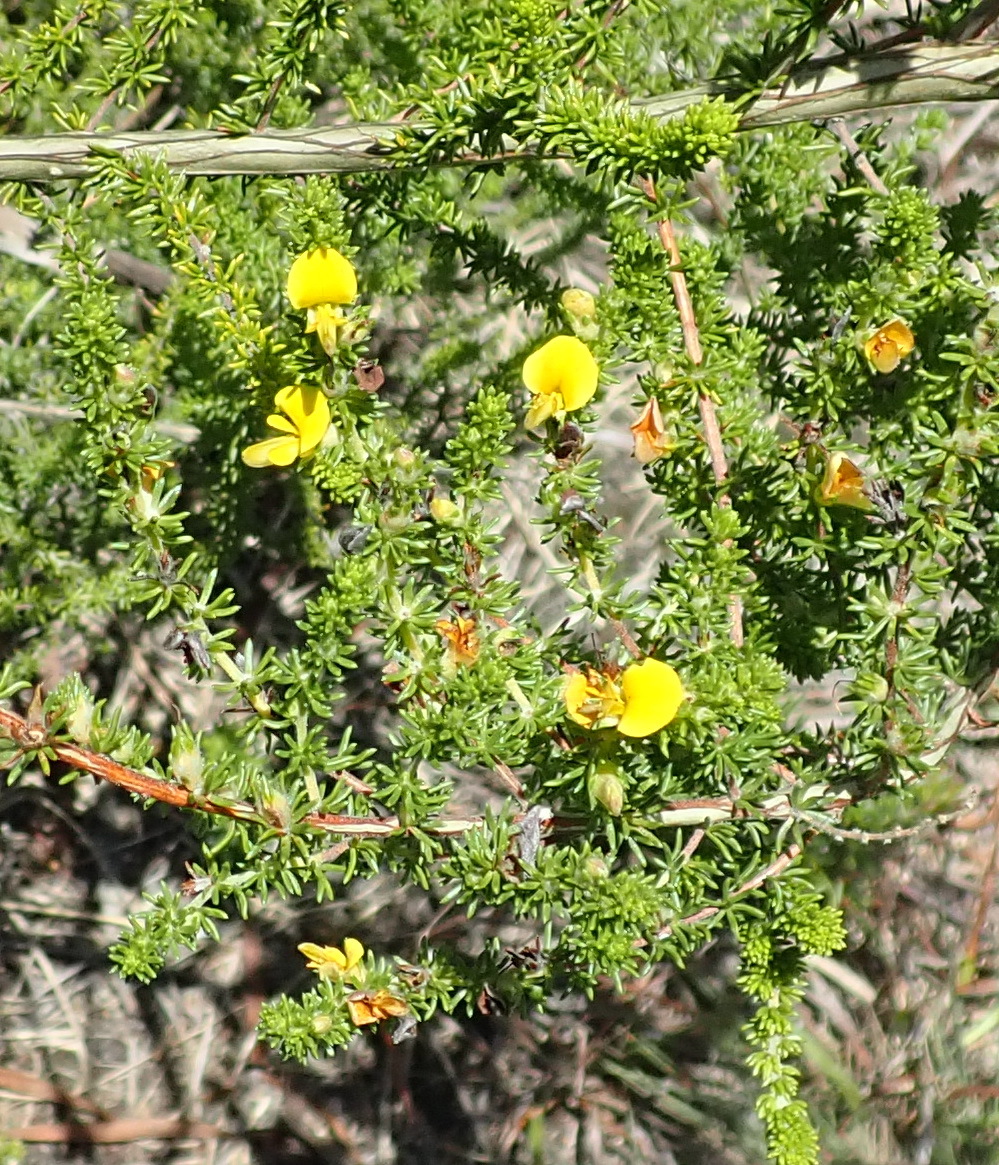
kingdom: Plantae
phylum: Tracheophyta
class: Magnoliopsida
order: Fabales
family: Fabaceae
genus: Aspalathus
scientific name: Aspalathus opaca
